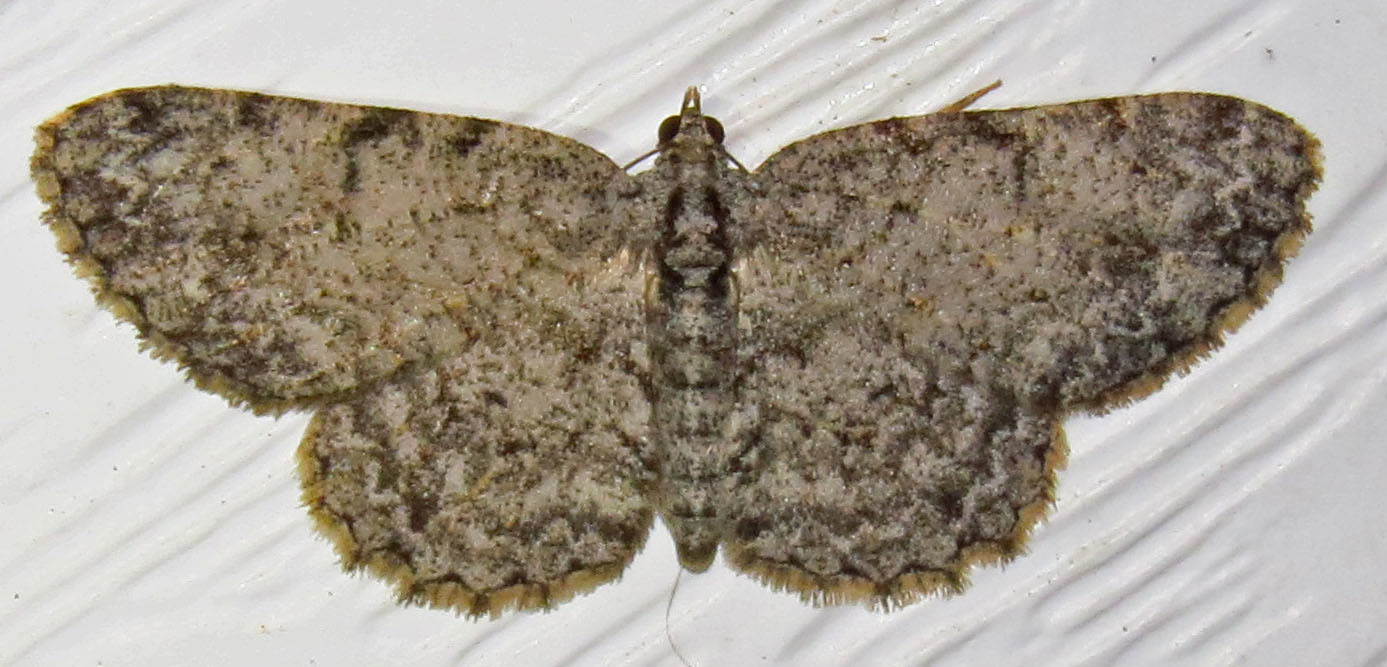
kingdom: Animalia
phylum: Arthropoda
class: Insecta
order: Lepidoptera
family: Geometridae
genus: Protoboarmia
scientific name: Protoboarmia porcelaria
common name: Porcelain gray
